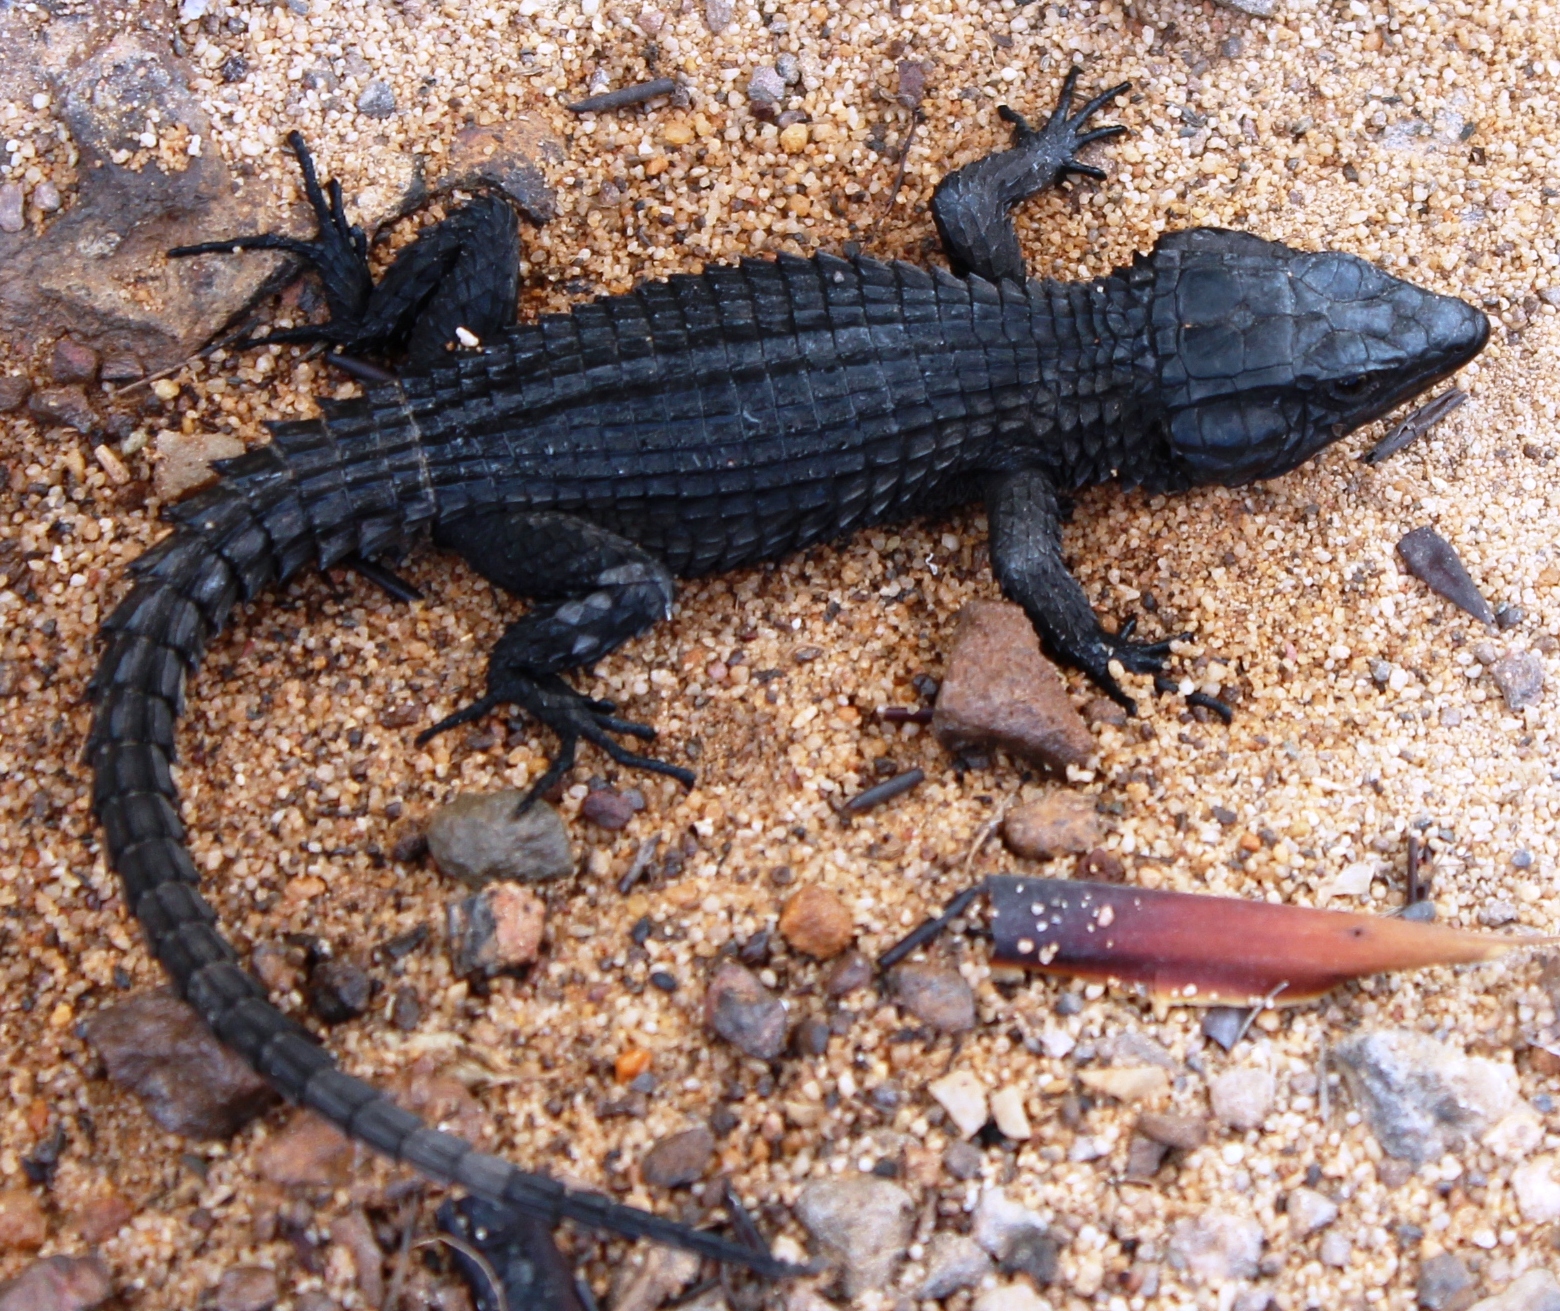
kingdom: Animalia
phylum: Chordata
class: Squamata
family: Cordylidae
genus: Cordylus
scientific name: Cordylus niger
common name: Black girdled lizard
